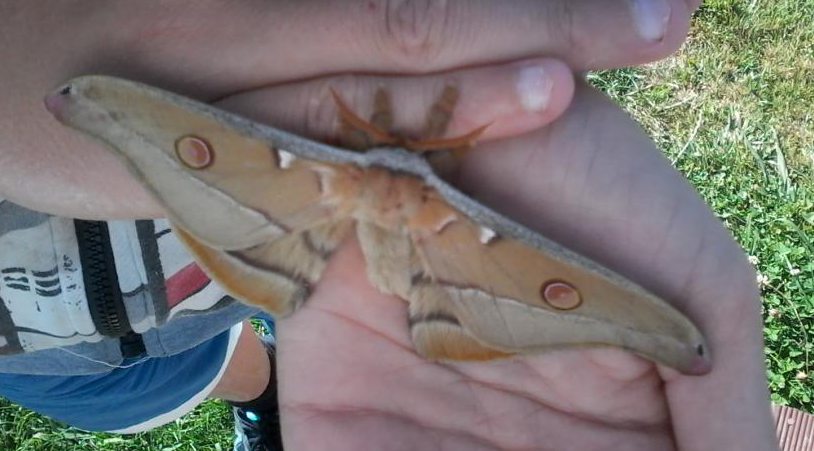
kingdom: Animalia
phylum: Arthropoda
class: Insecta
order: Lepidoptera
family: Saturniidae
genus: Opodiphthera
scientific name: Opodiphthera
